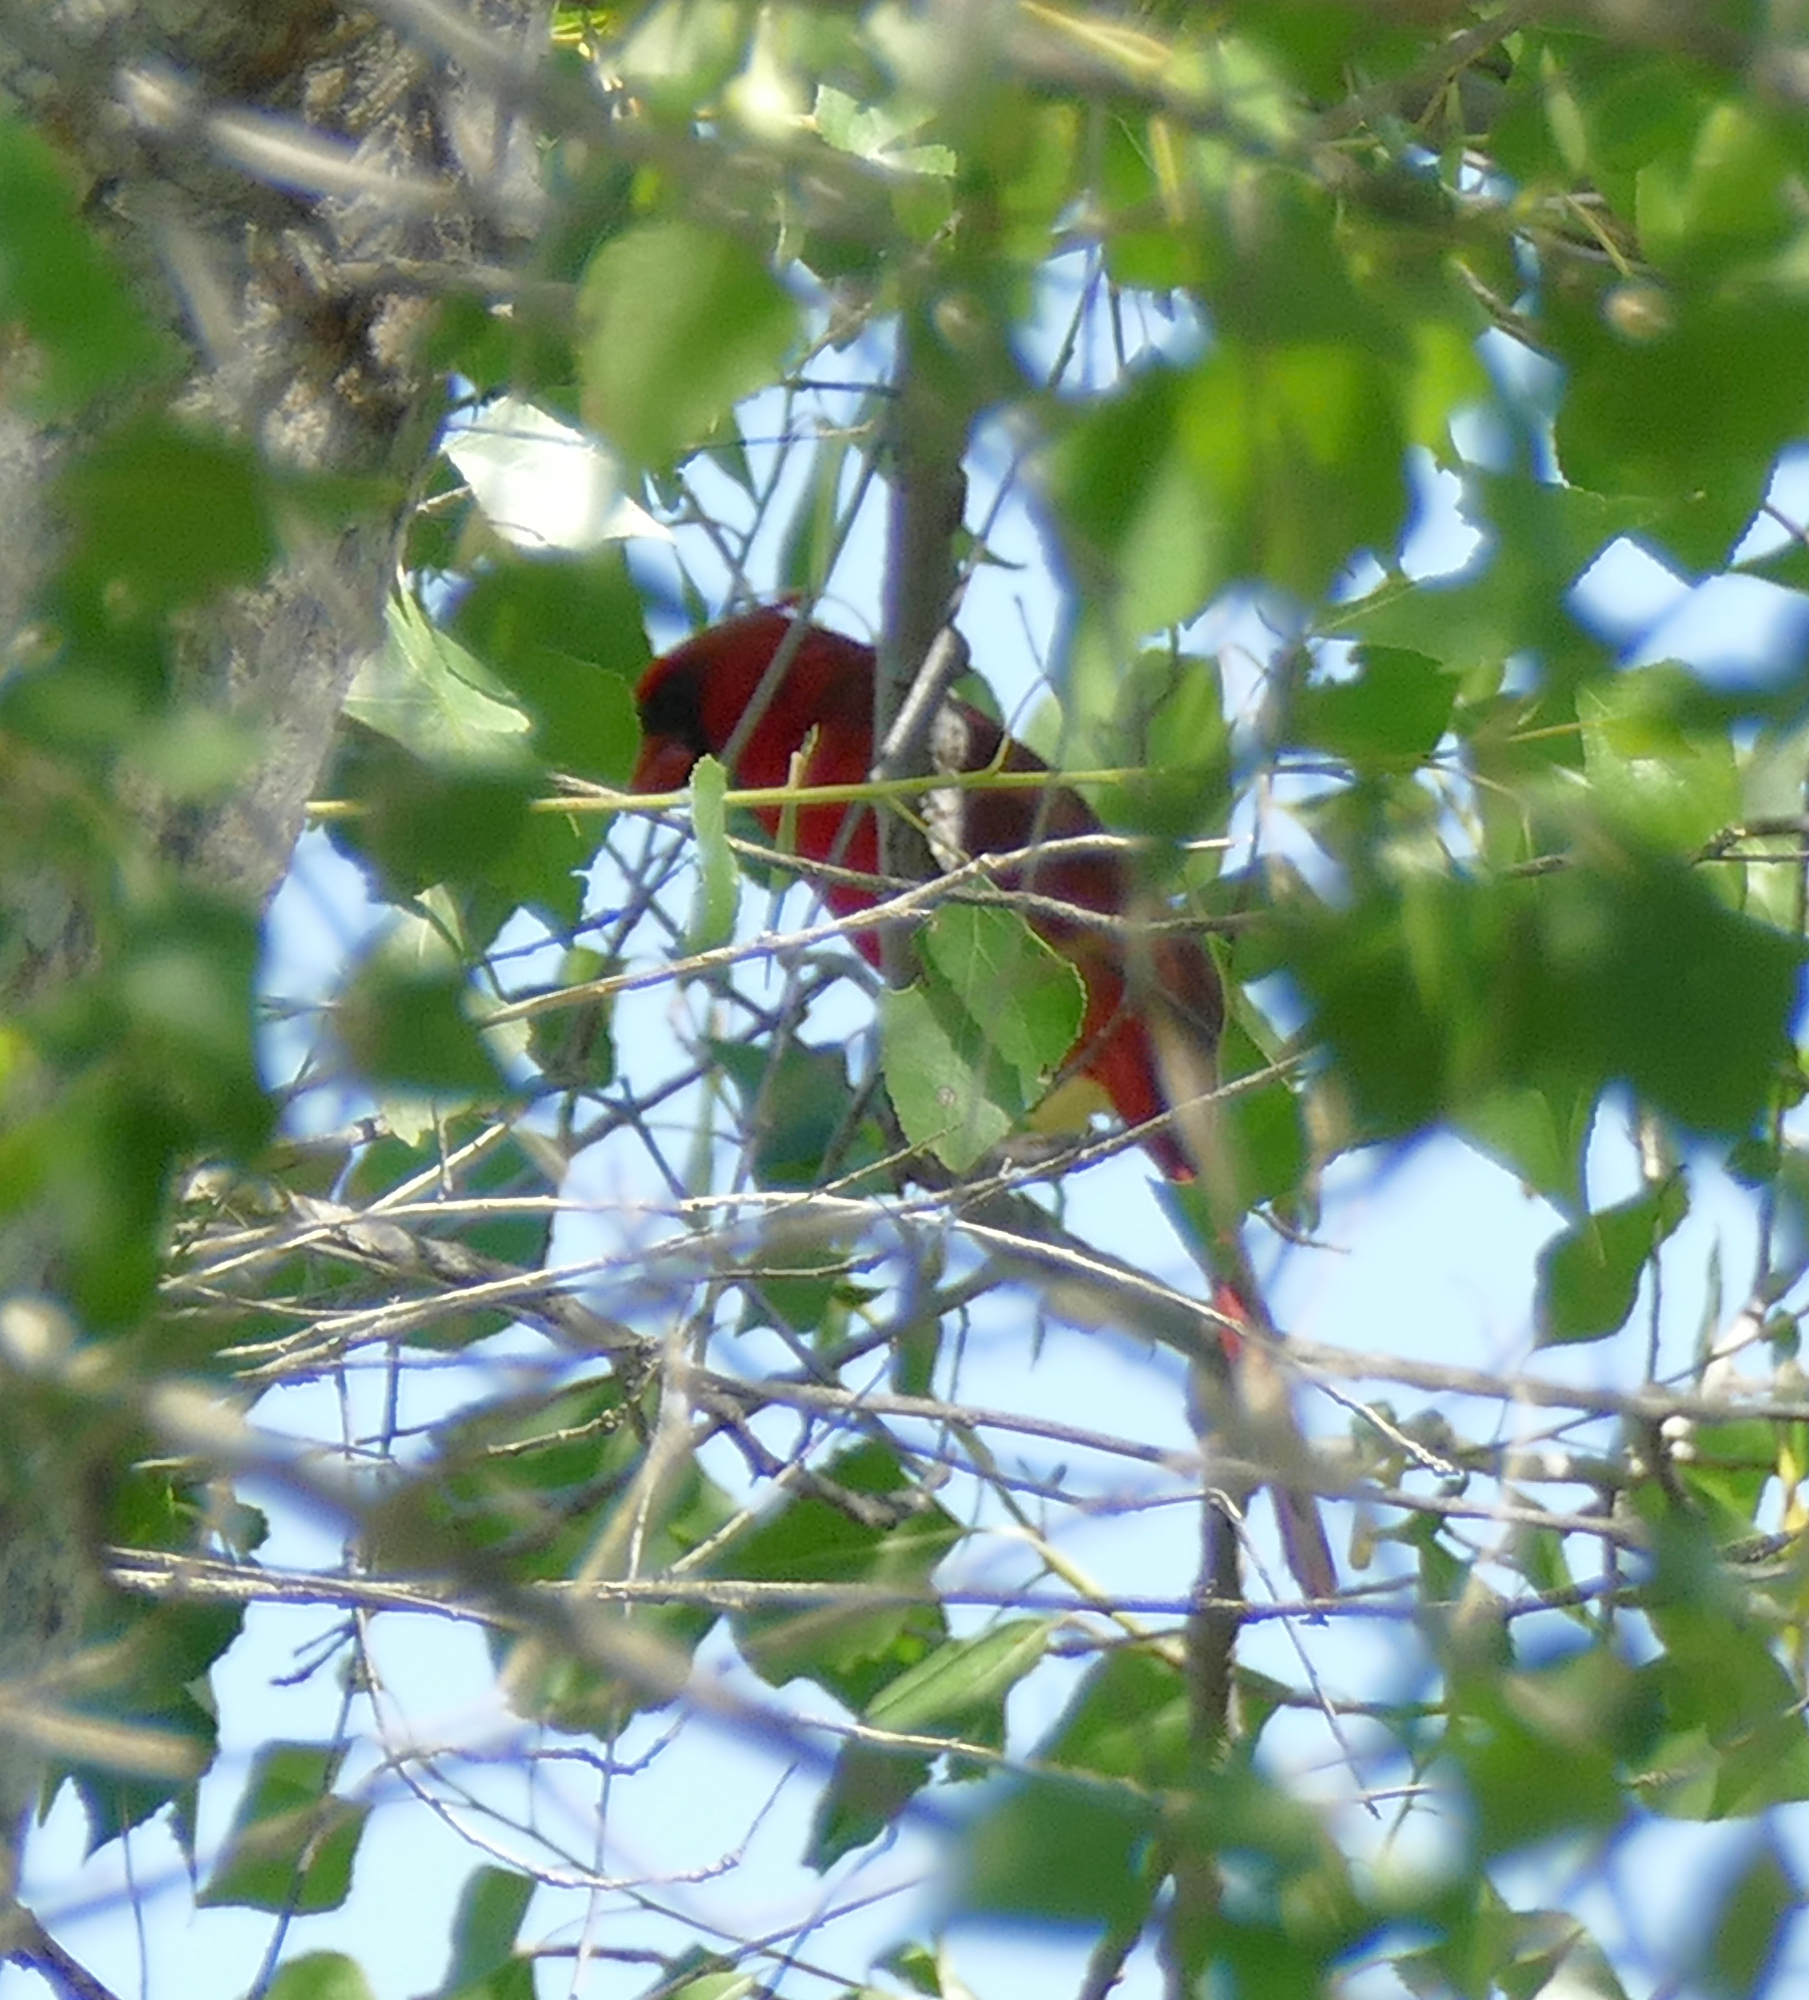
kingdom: Animalia
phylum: Chordata
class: Aves
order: Passeriformes
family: Cardinalidae
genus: Cardinalis
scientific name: Cardinalis cardinalis
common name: Northern cardinal
